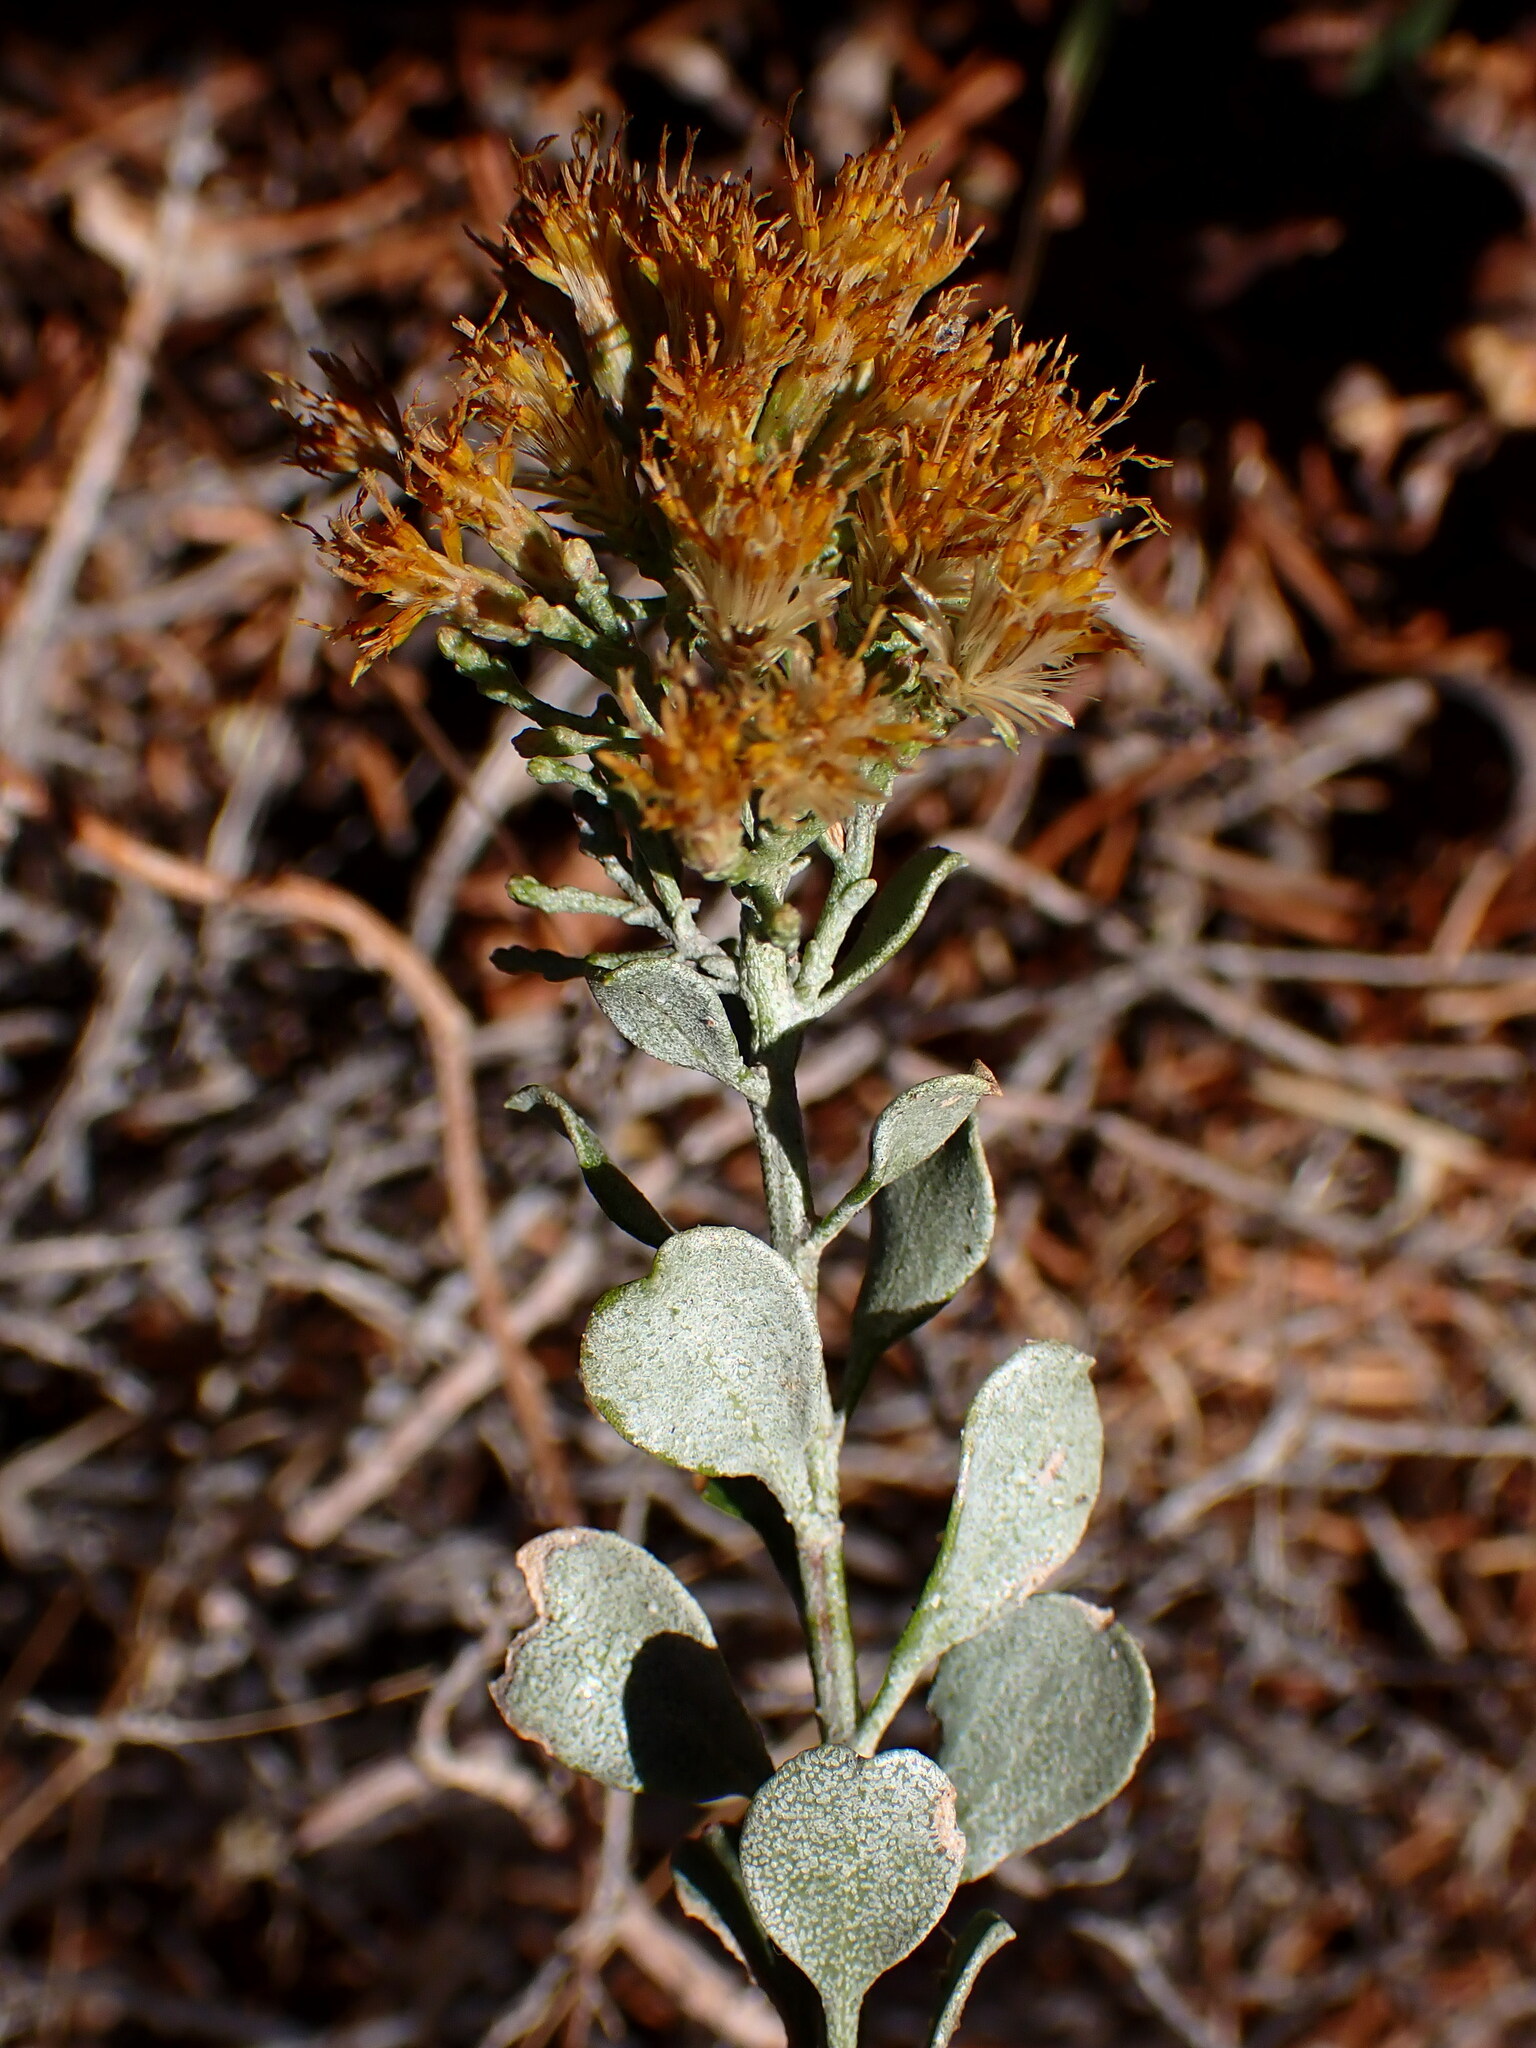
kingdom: Plantae
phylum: Tracheophyta
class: Magnoliopsida
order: Asterales
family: Asteraceae
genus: Ericameria
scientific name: Ericameria cuneata
